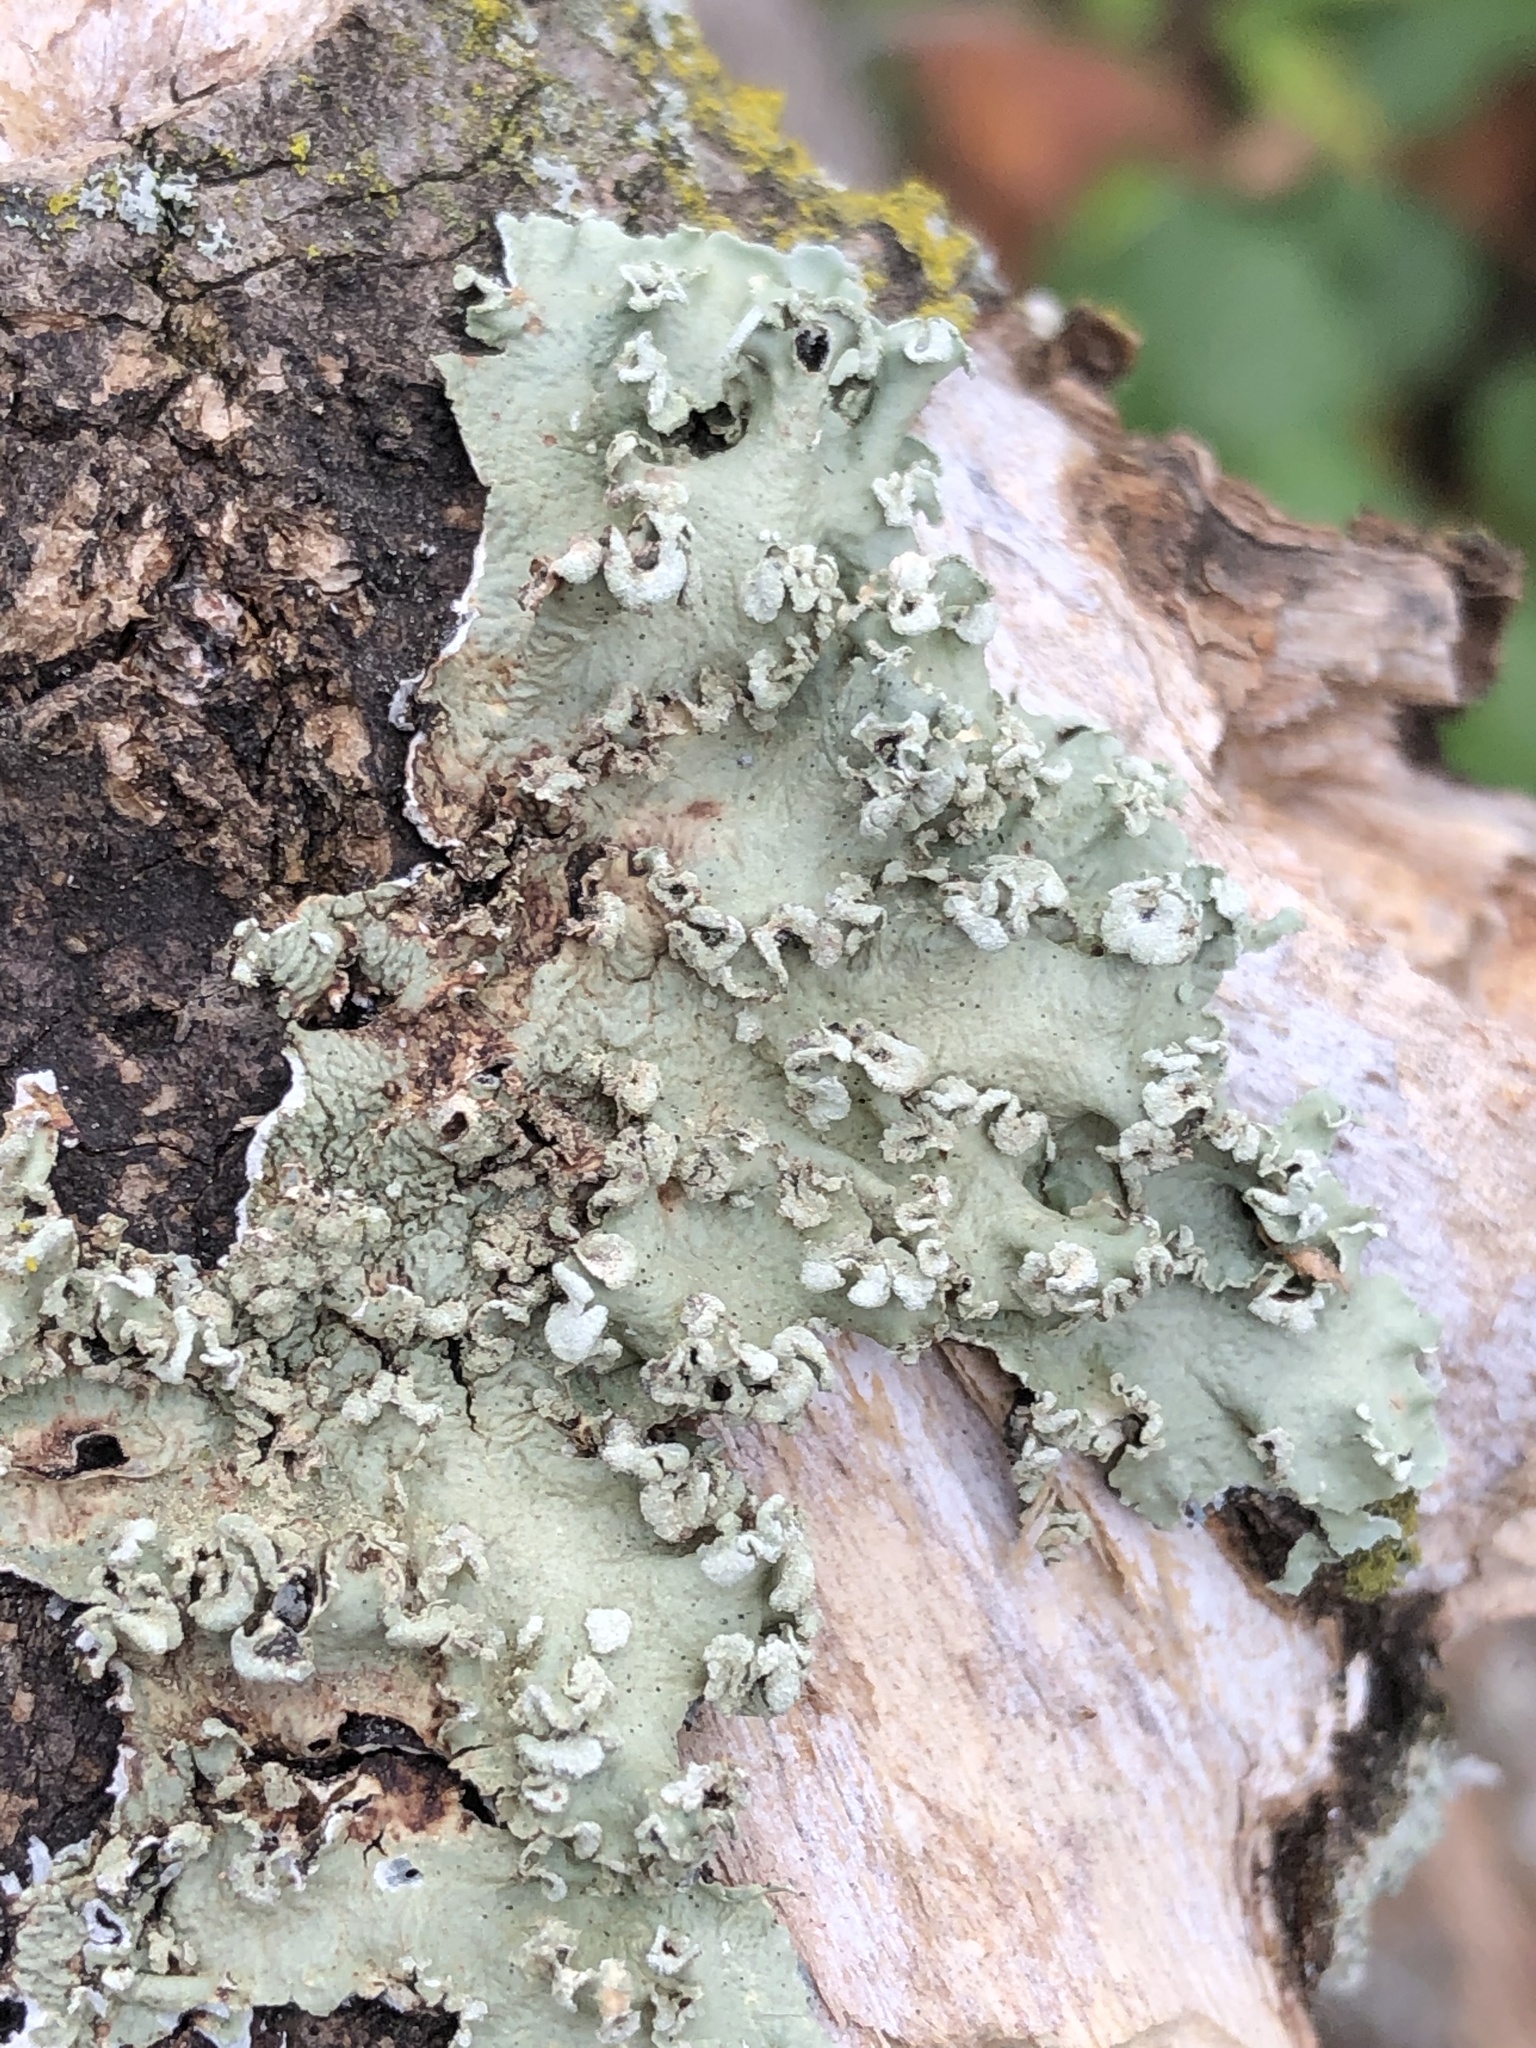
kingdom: Fungi
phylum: Ascomycota
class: Lecanoromycetes
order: Lecanorales
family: Parmeliaceae
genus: Flavopunctelia
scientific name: Flavopunctelia soredica
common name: Powder-edged speckled greenshield
